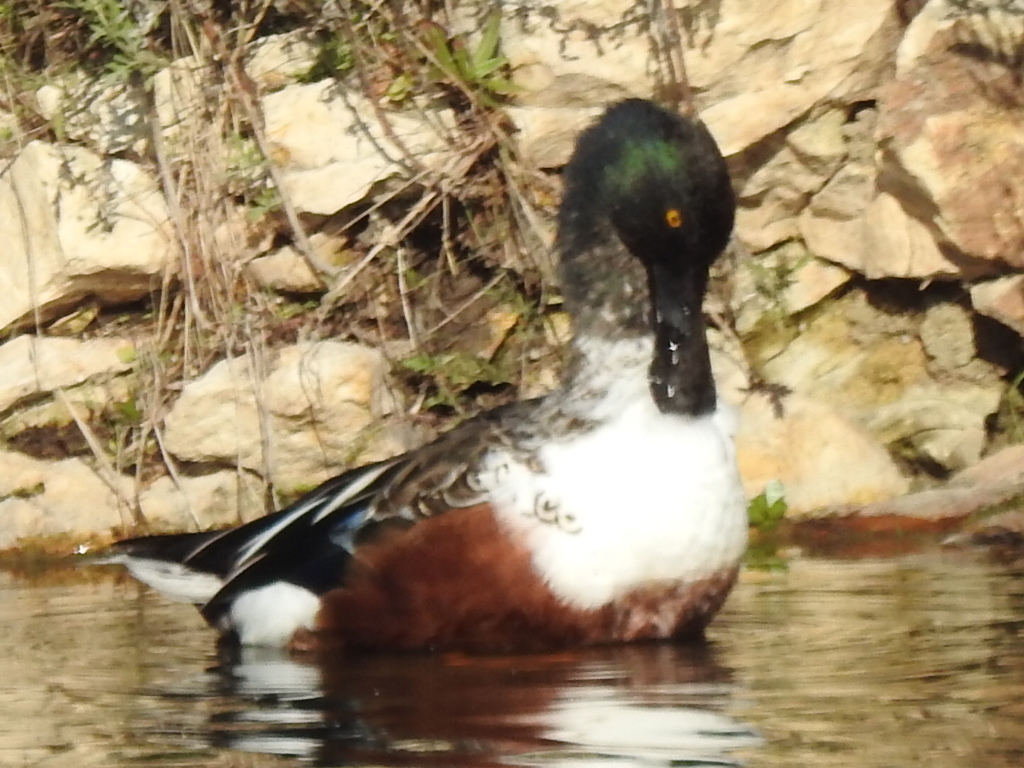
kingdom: Animalia
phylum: Chordata
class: Aves
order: Anseriformes
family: Anatidae
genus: Spatula
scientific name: Spatula clypeata
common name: Northern shoveler
